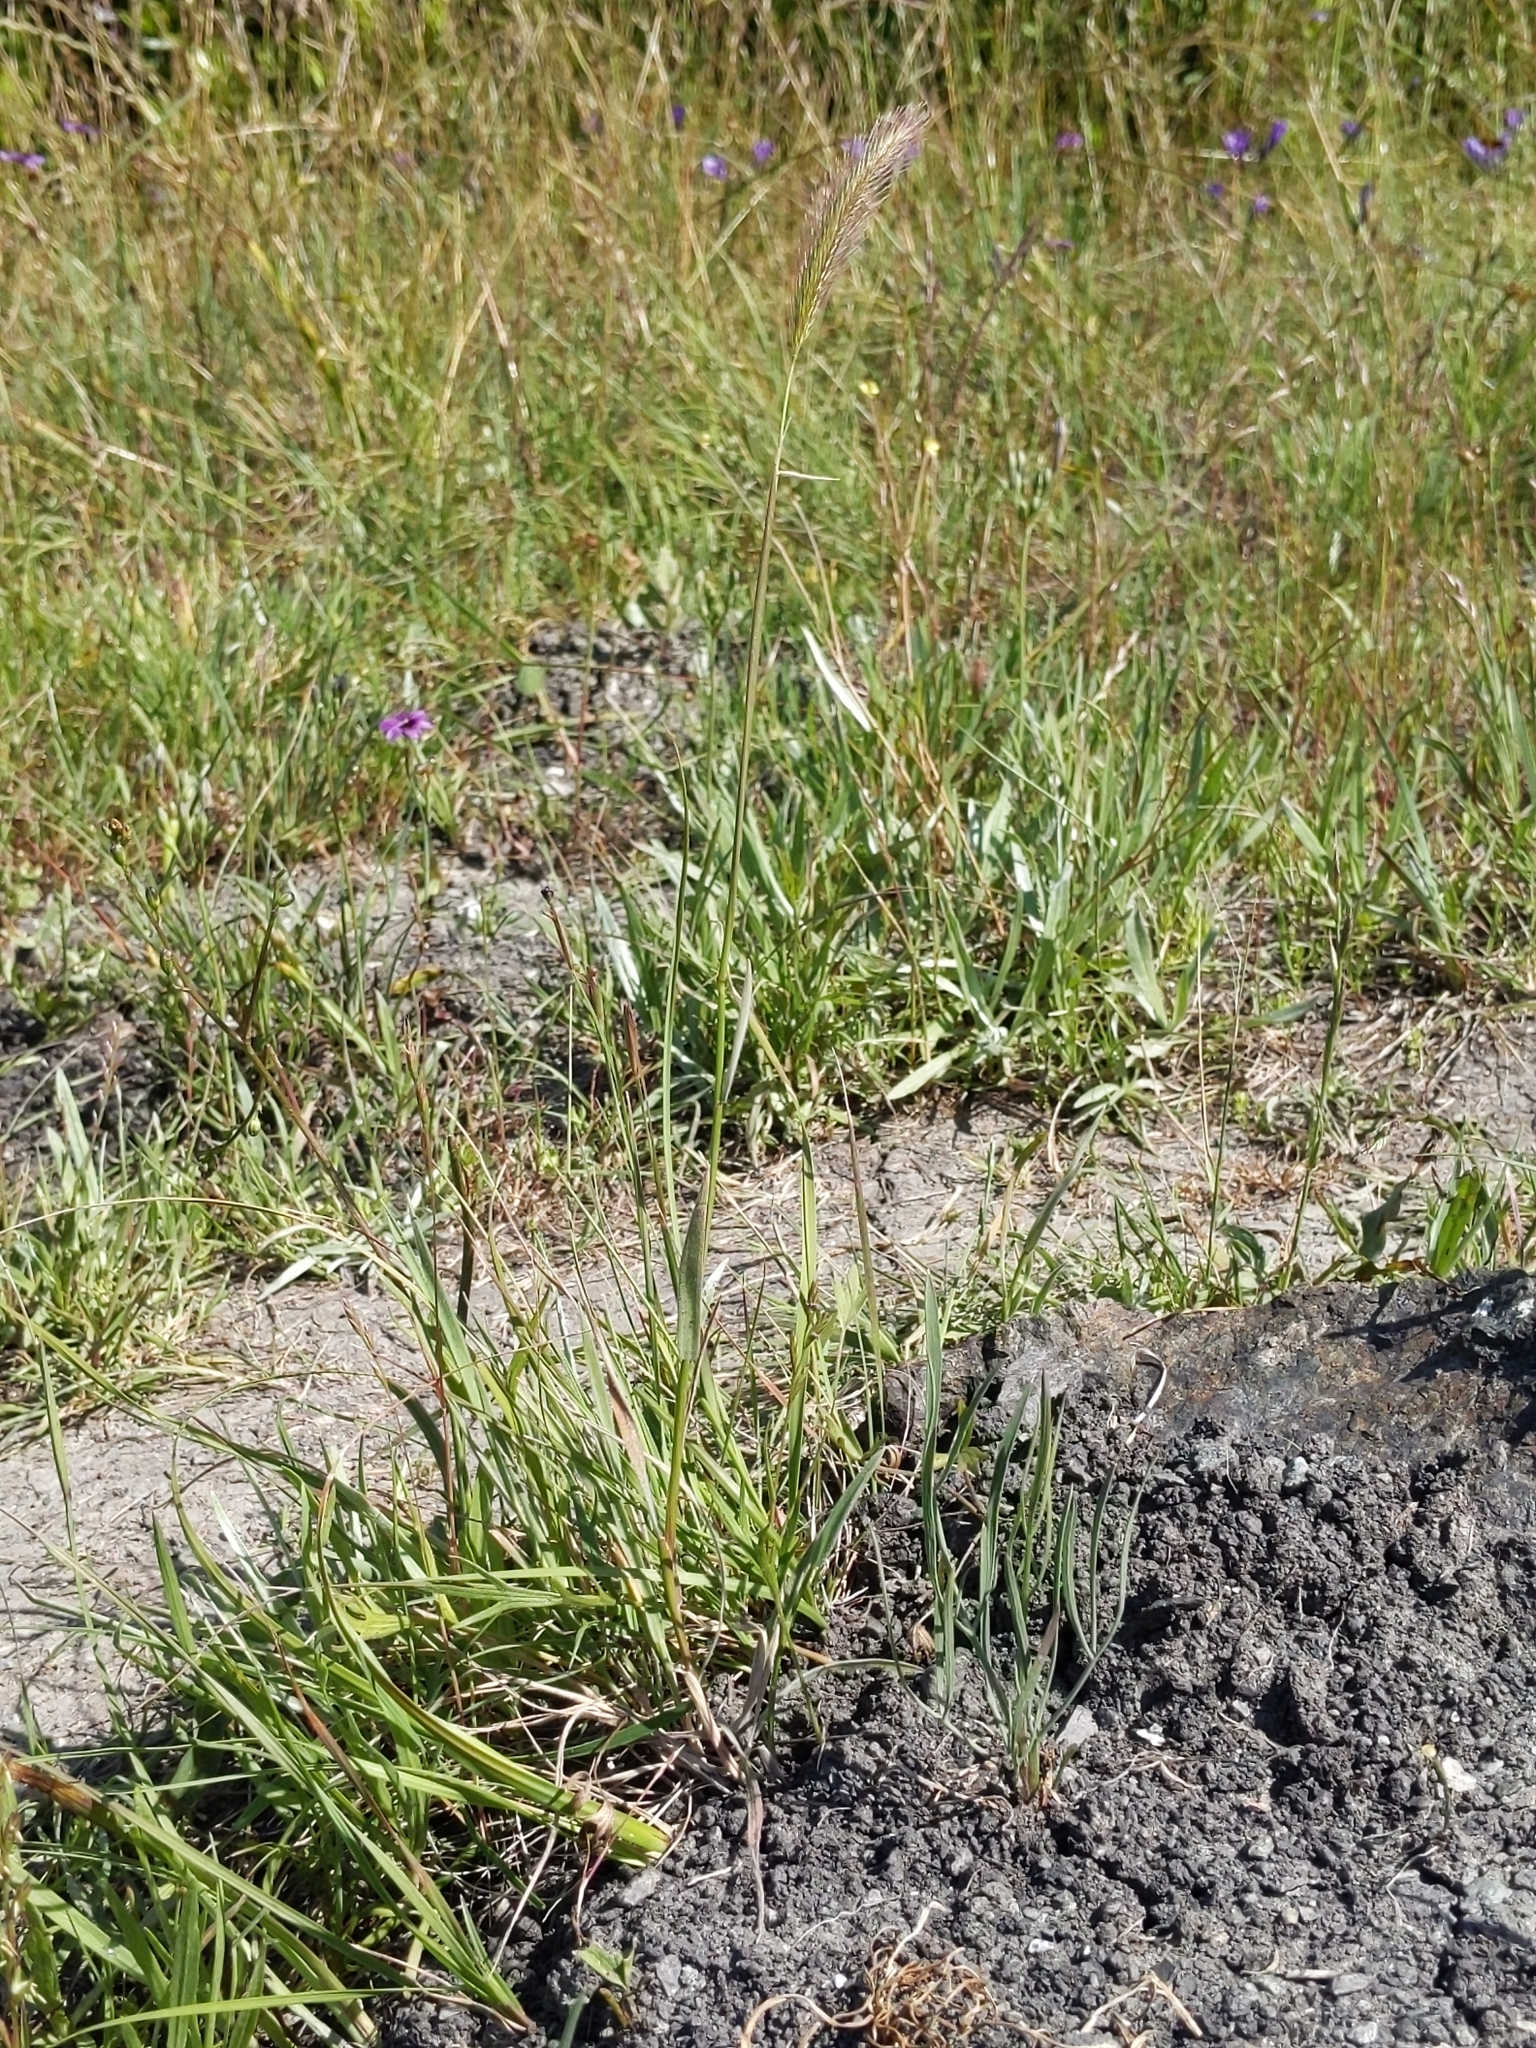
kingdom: Plantae
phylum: Tracheophyta
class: Liliopsida
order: Poales
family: Poaceae
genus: Hordeum
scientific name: Hordeum brachyantherum
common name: Meadow barley
